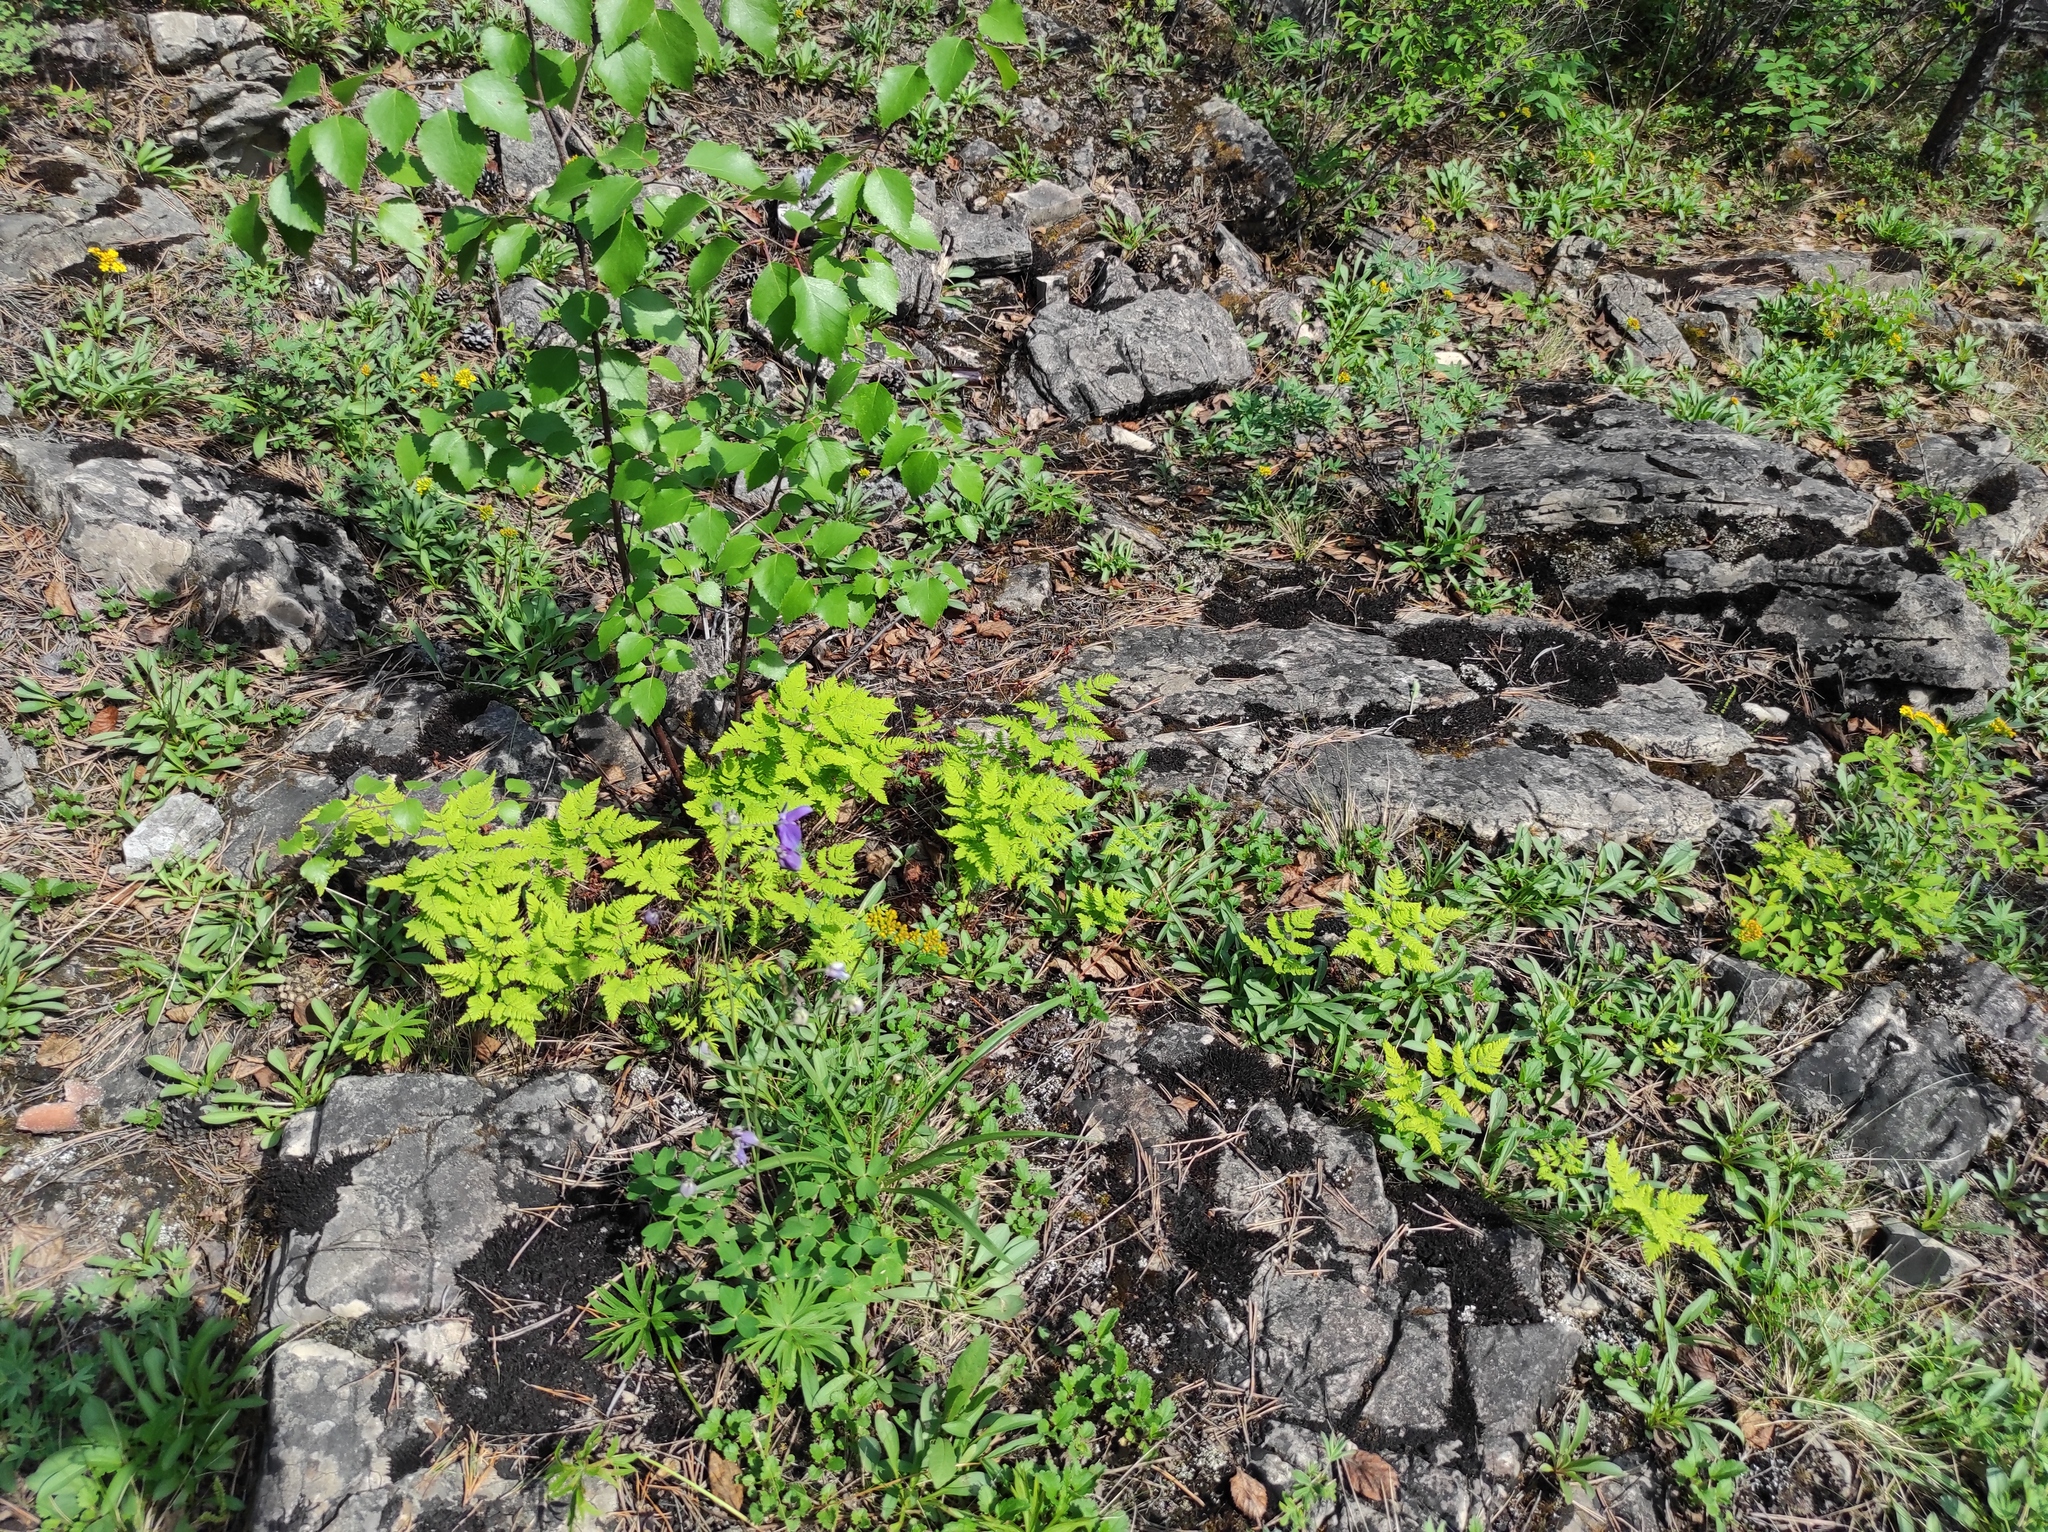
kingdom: Plantae
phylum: Tracheophyta
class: Polypodiopsida
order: Polypodiales
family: Cystopteridaceae
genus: Gymnocarpium
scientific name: Gymnocarpium dryopteris
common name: Oak fern
